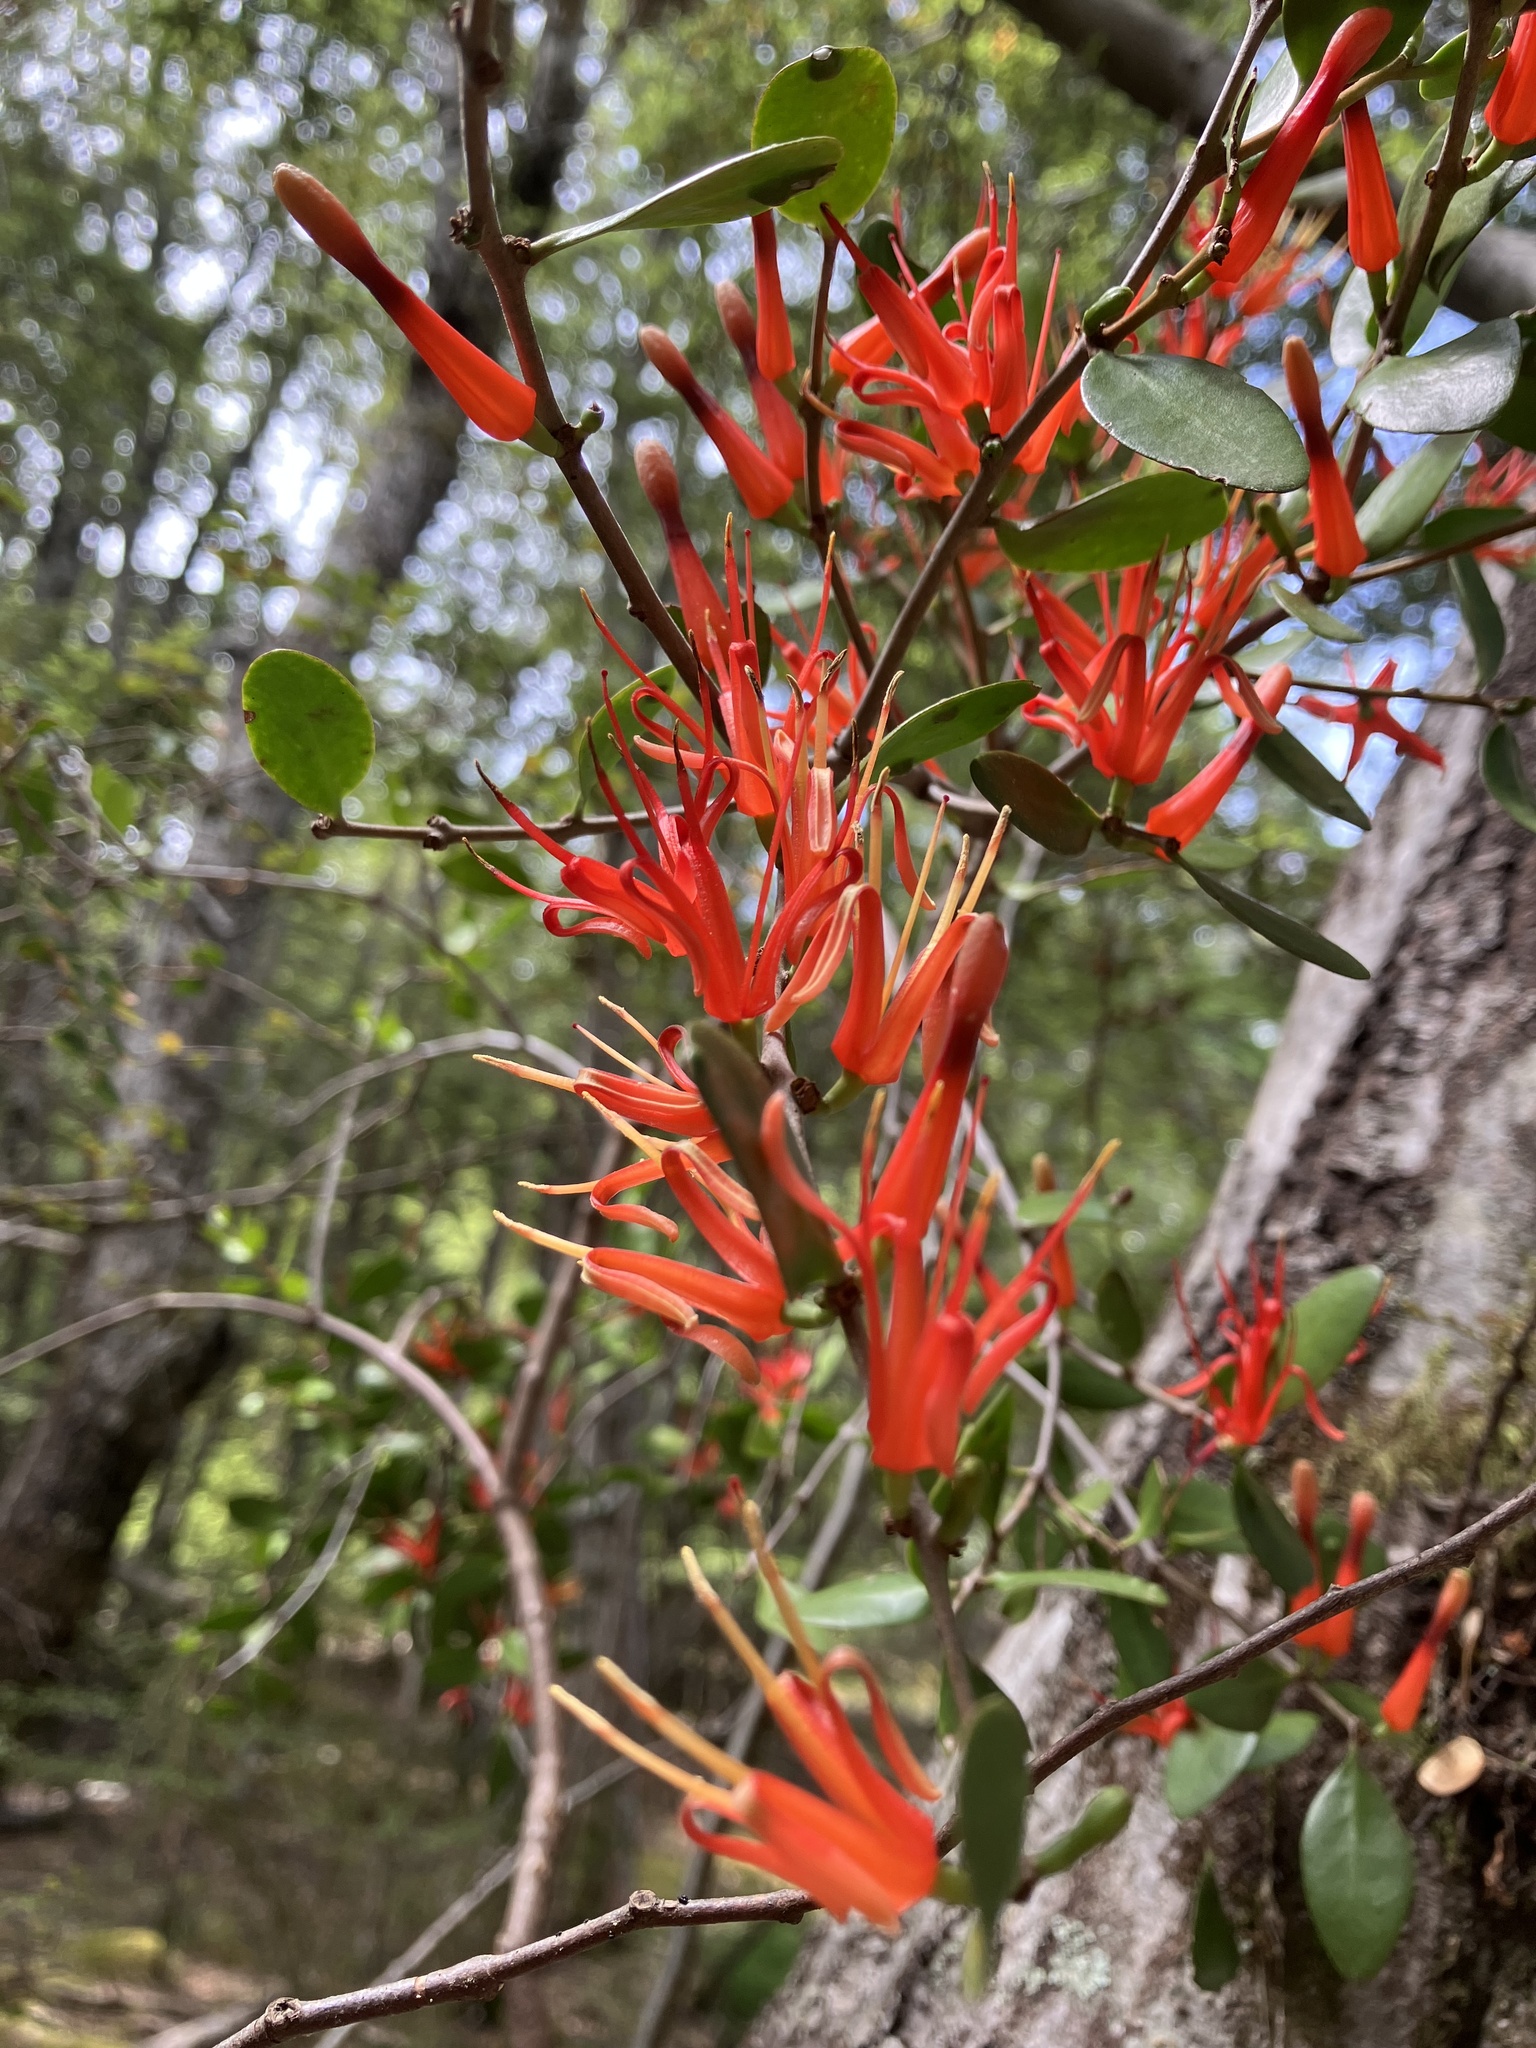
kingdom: Plantae
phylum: Tracheophyta
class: Magnoliopsida
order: Santalales
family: Loranthaceae
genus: Peraxilla
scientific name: Peraxilla tetrapetala
